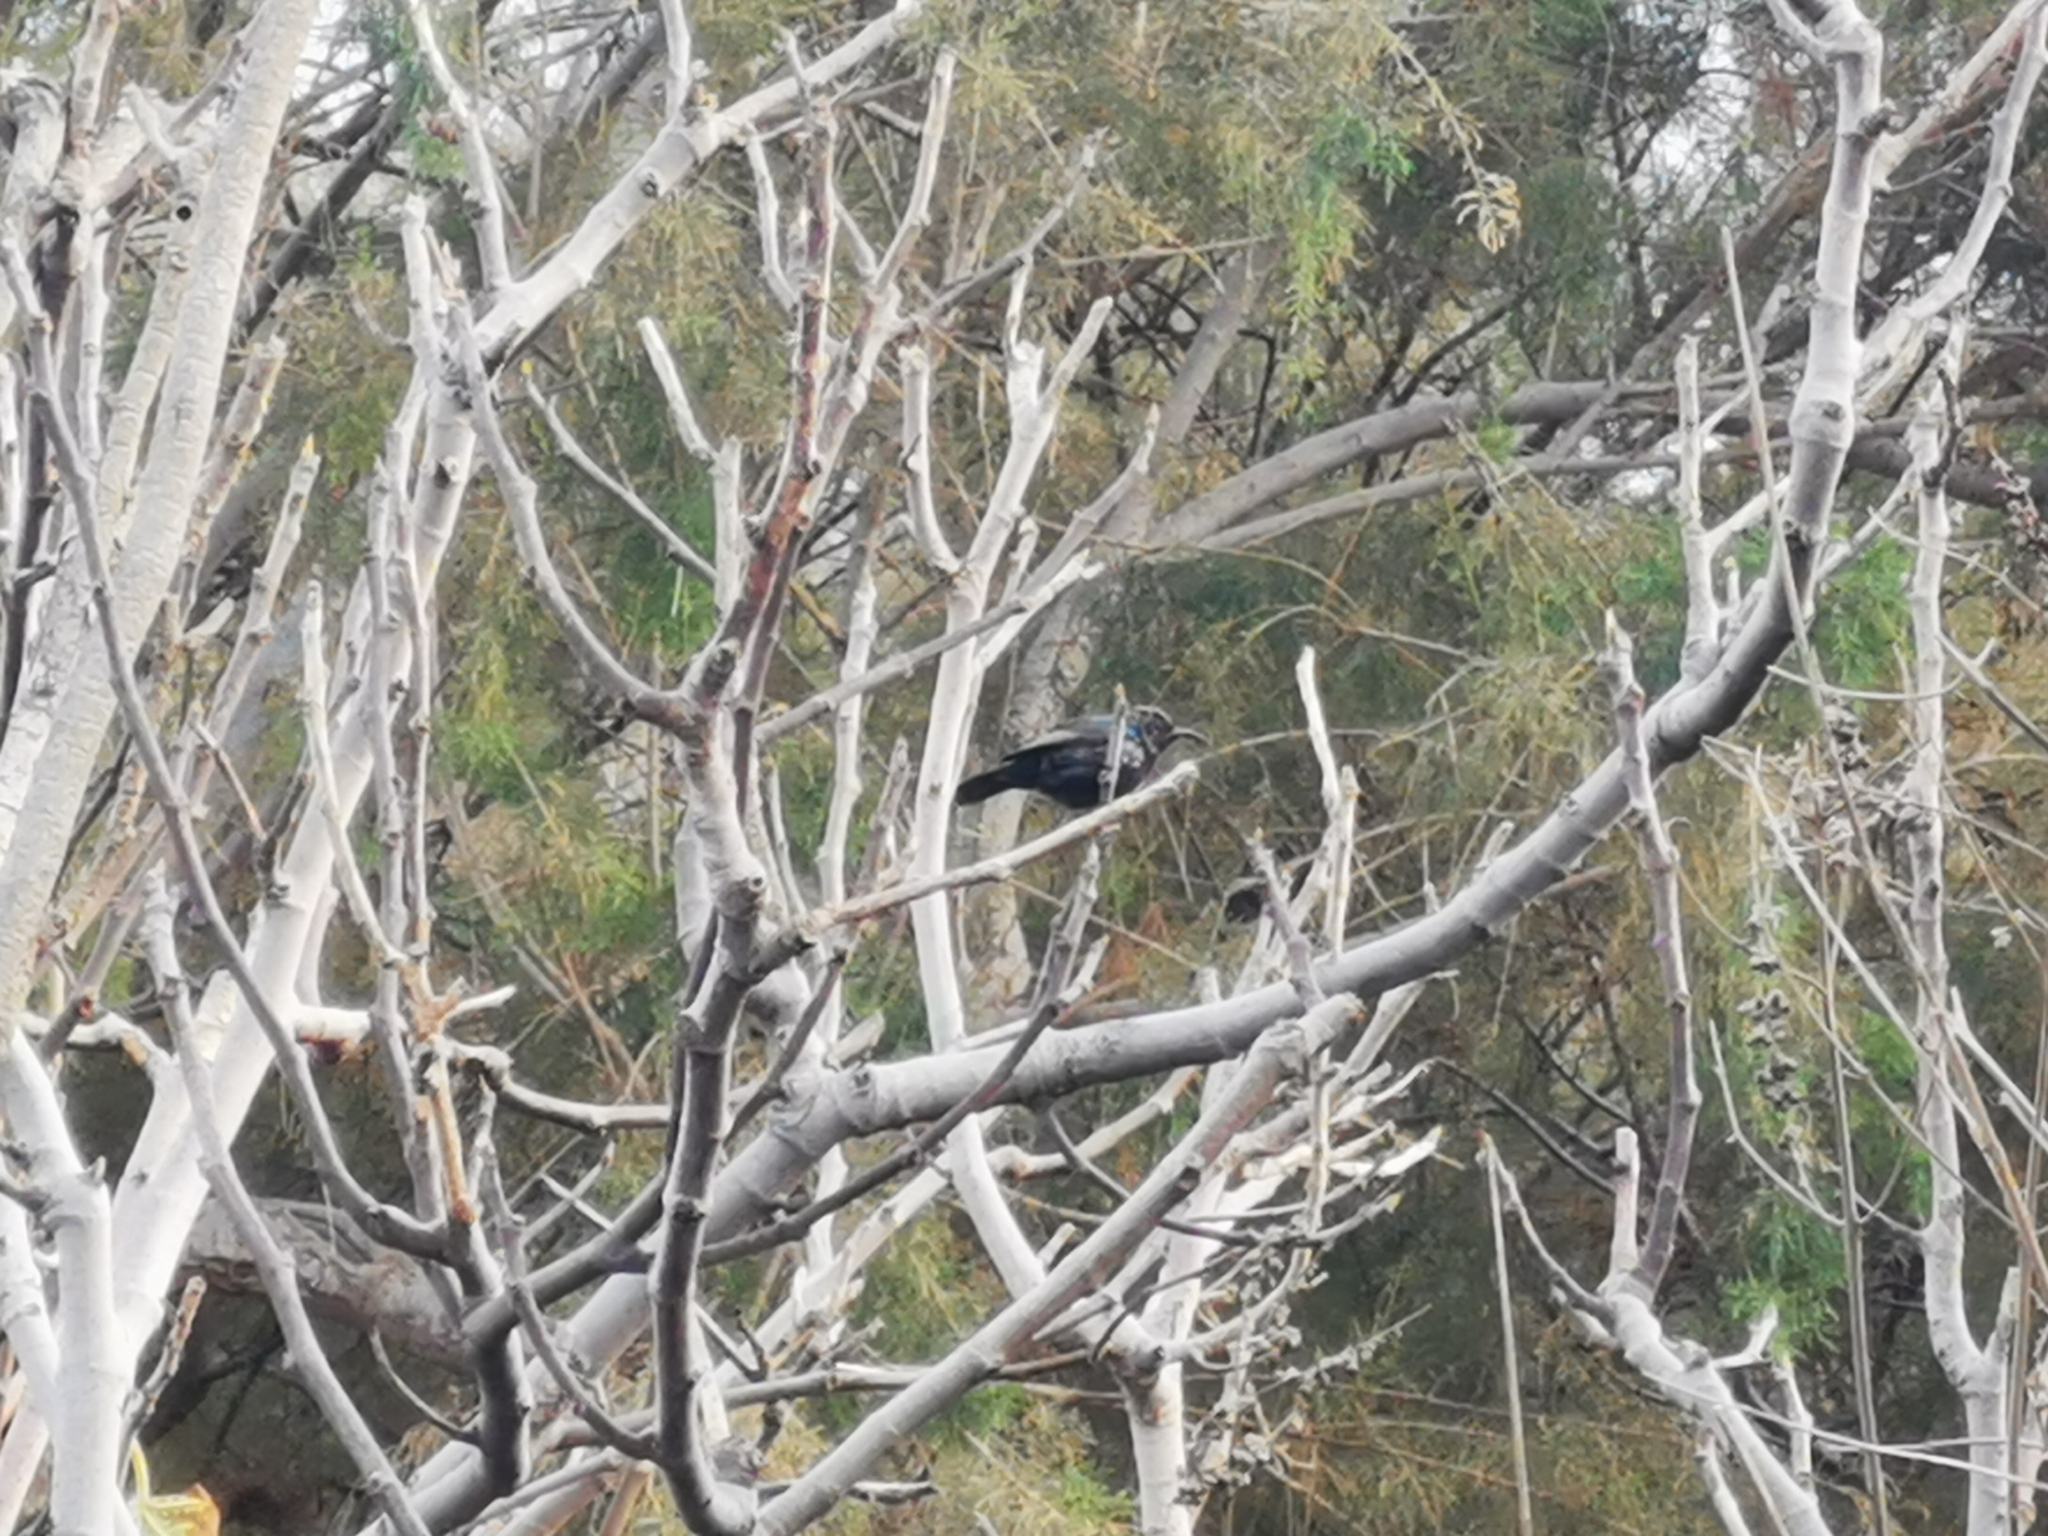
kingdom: Animalia
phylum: Chordata
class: Aves
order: Passeriformes
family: Nectariniidae
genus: Cinnyris
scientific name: Cinnyris osea
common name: Palestine sunbird
